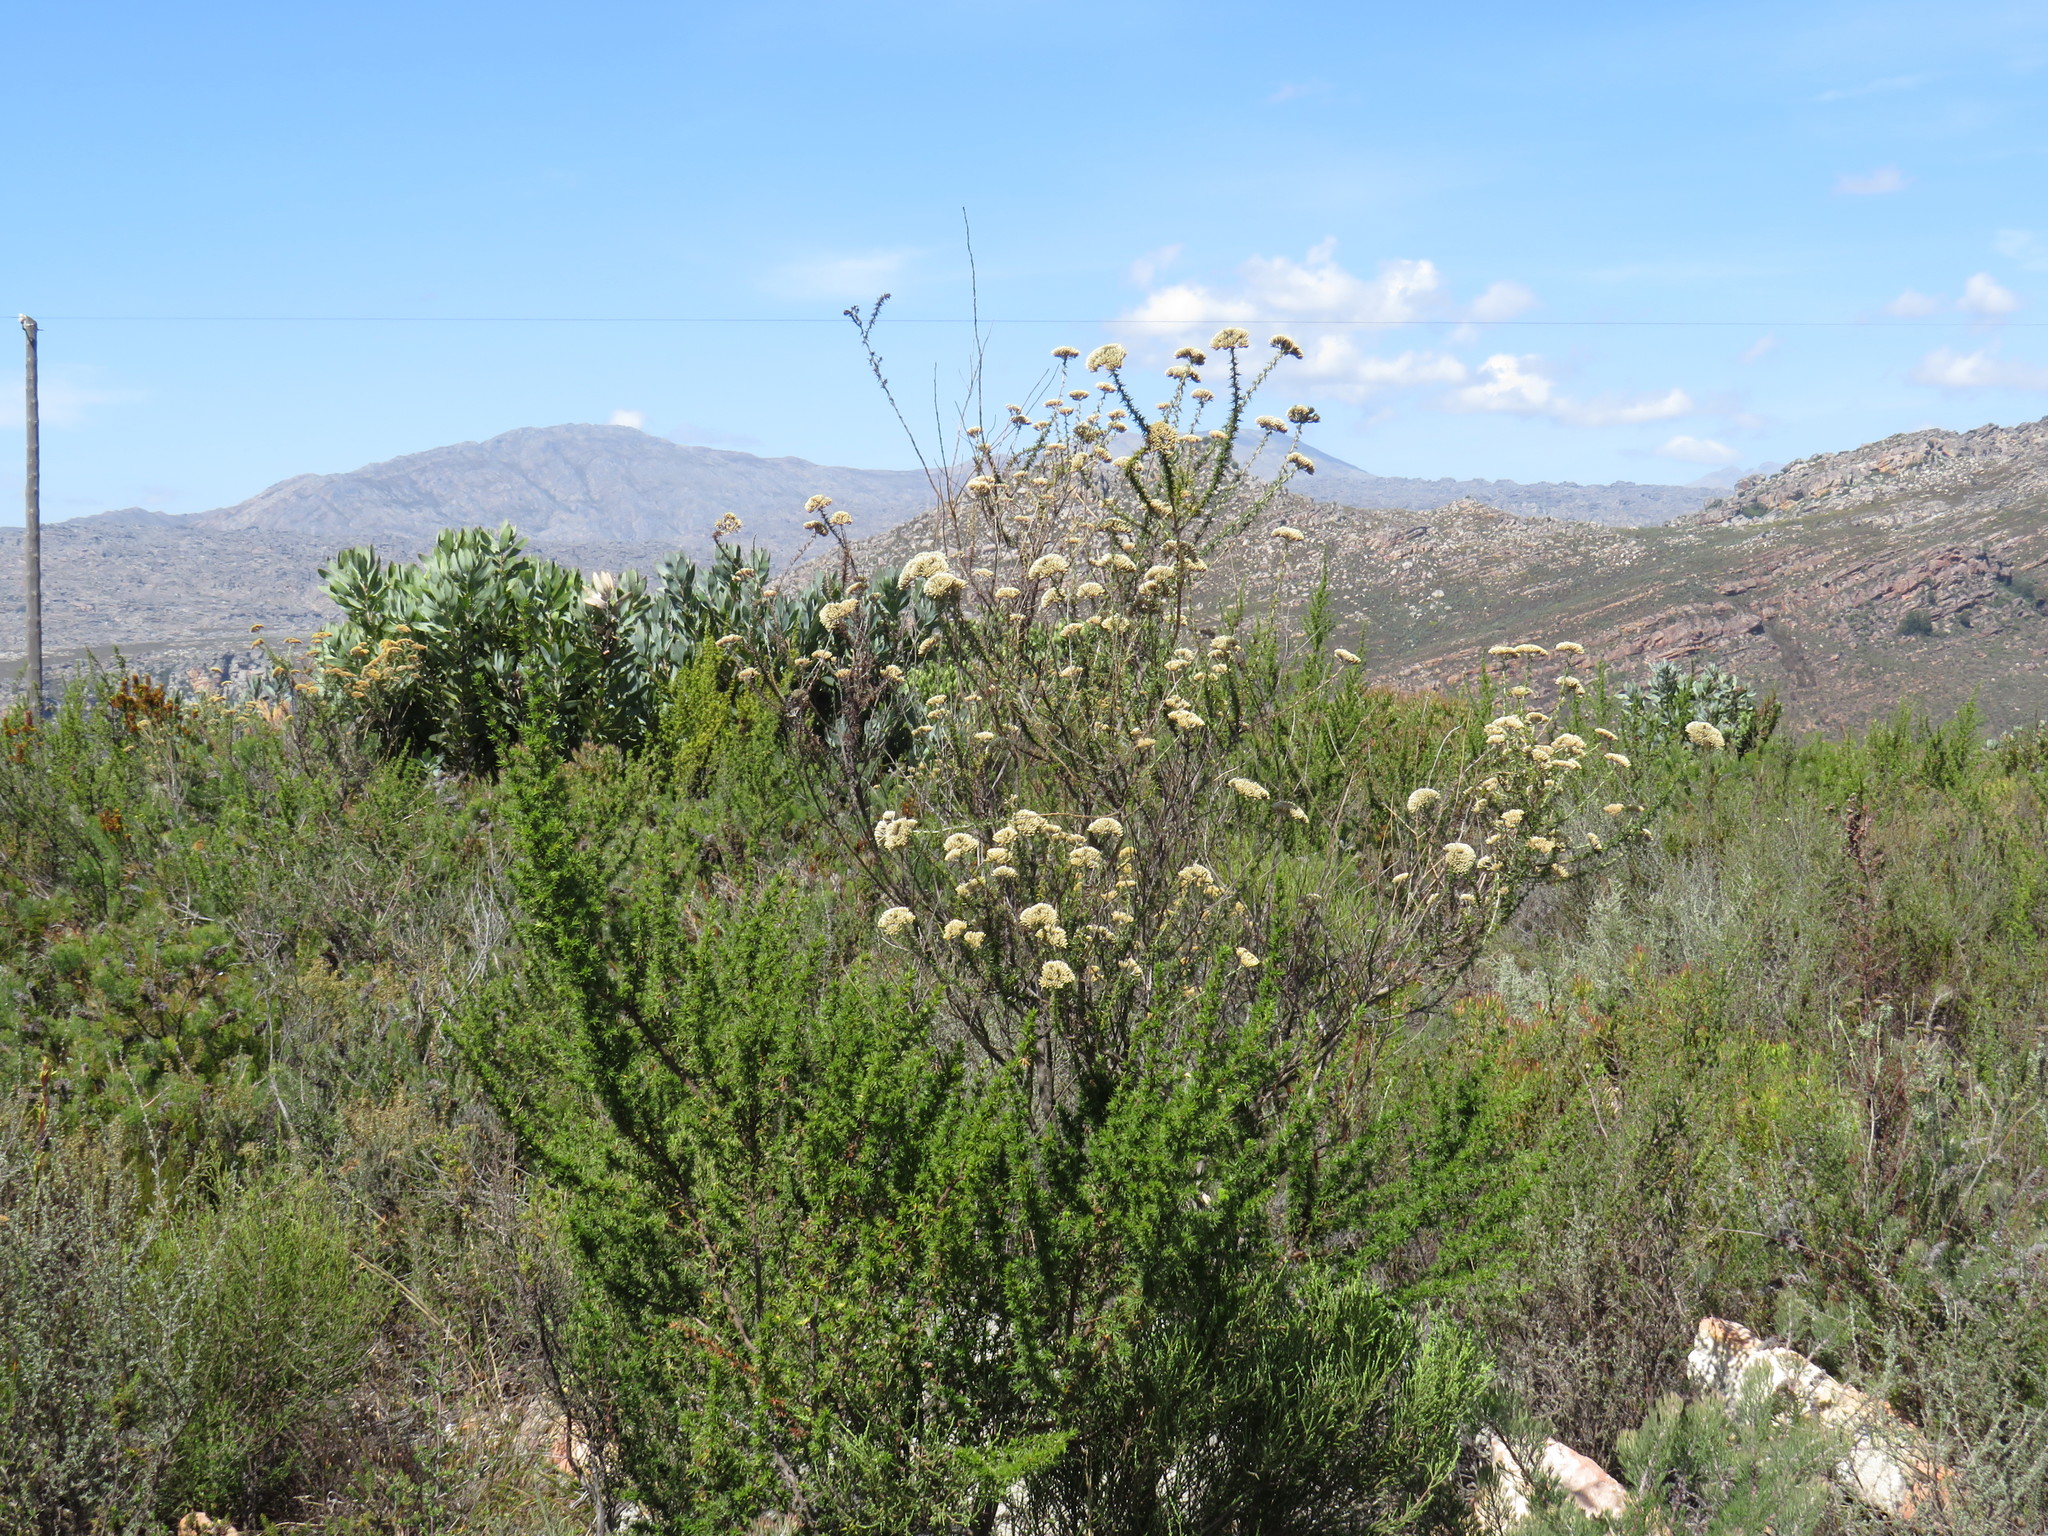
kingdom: Plantae
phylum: Tracheophyta
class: Magnoliopsida
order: Asterales
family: Asteraceae
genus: Metalasia
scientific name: Metalasia dregeana
